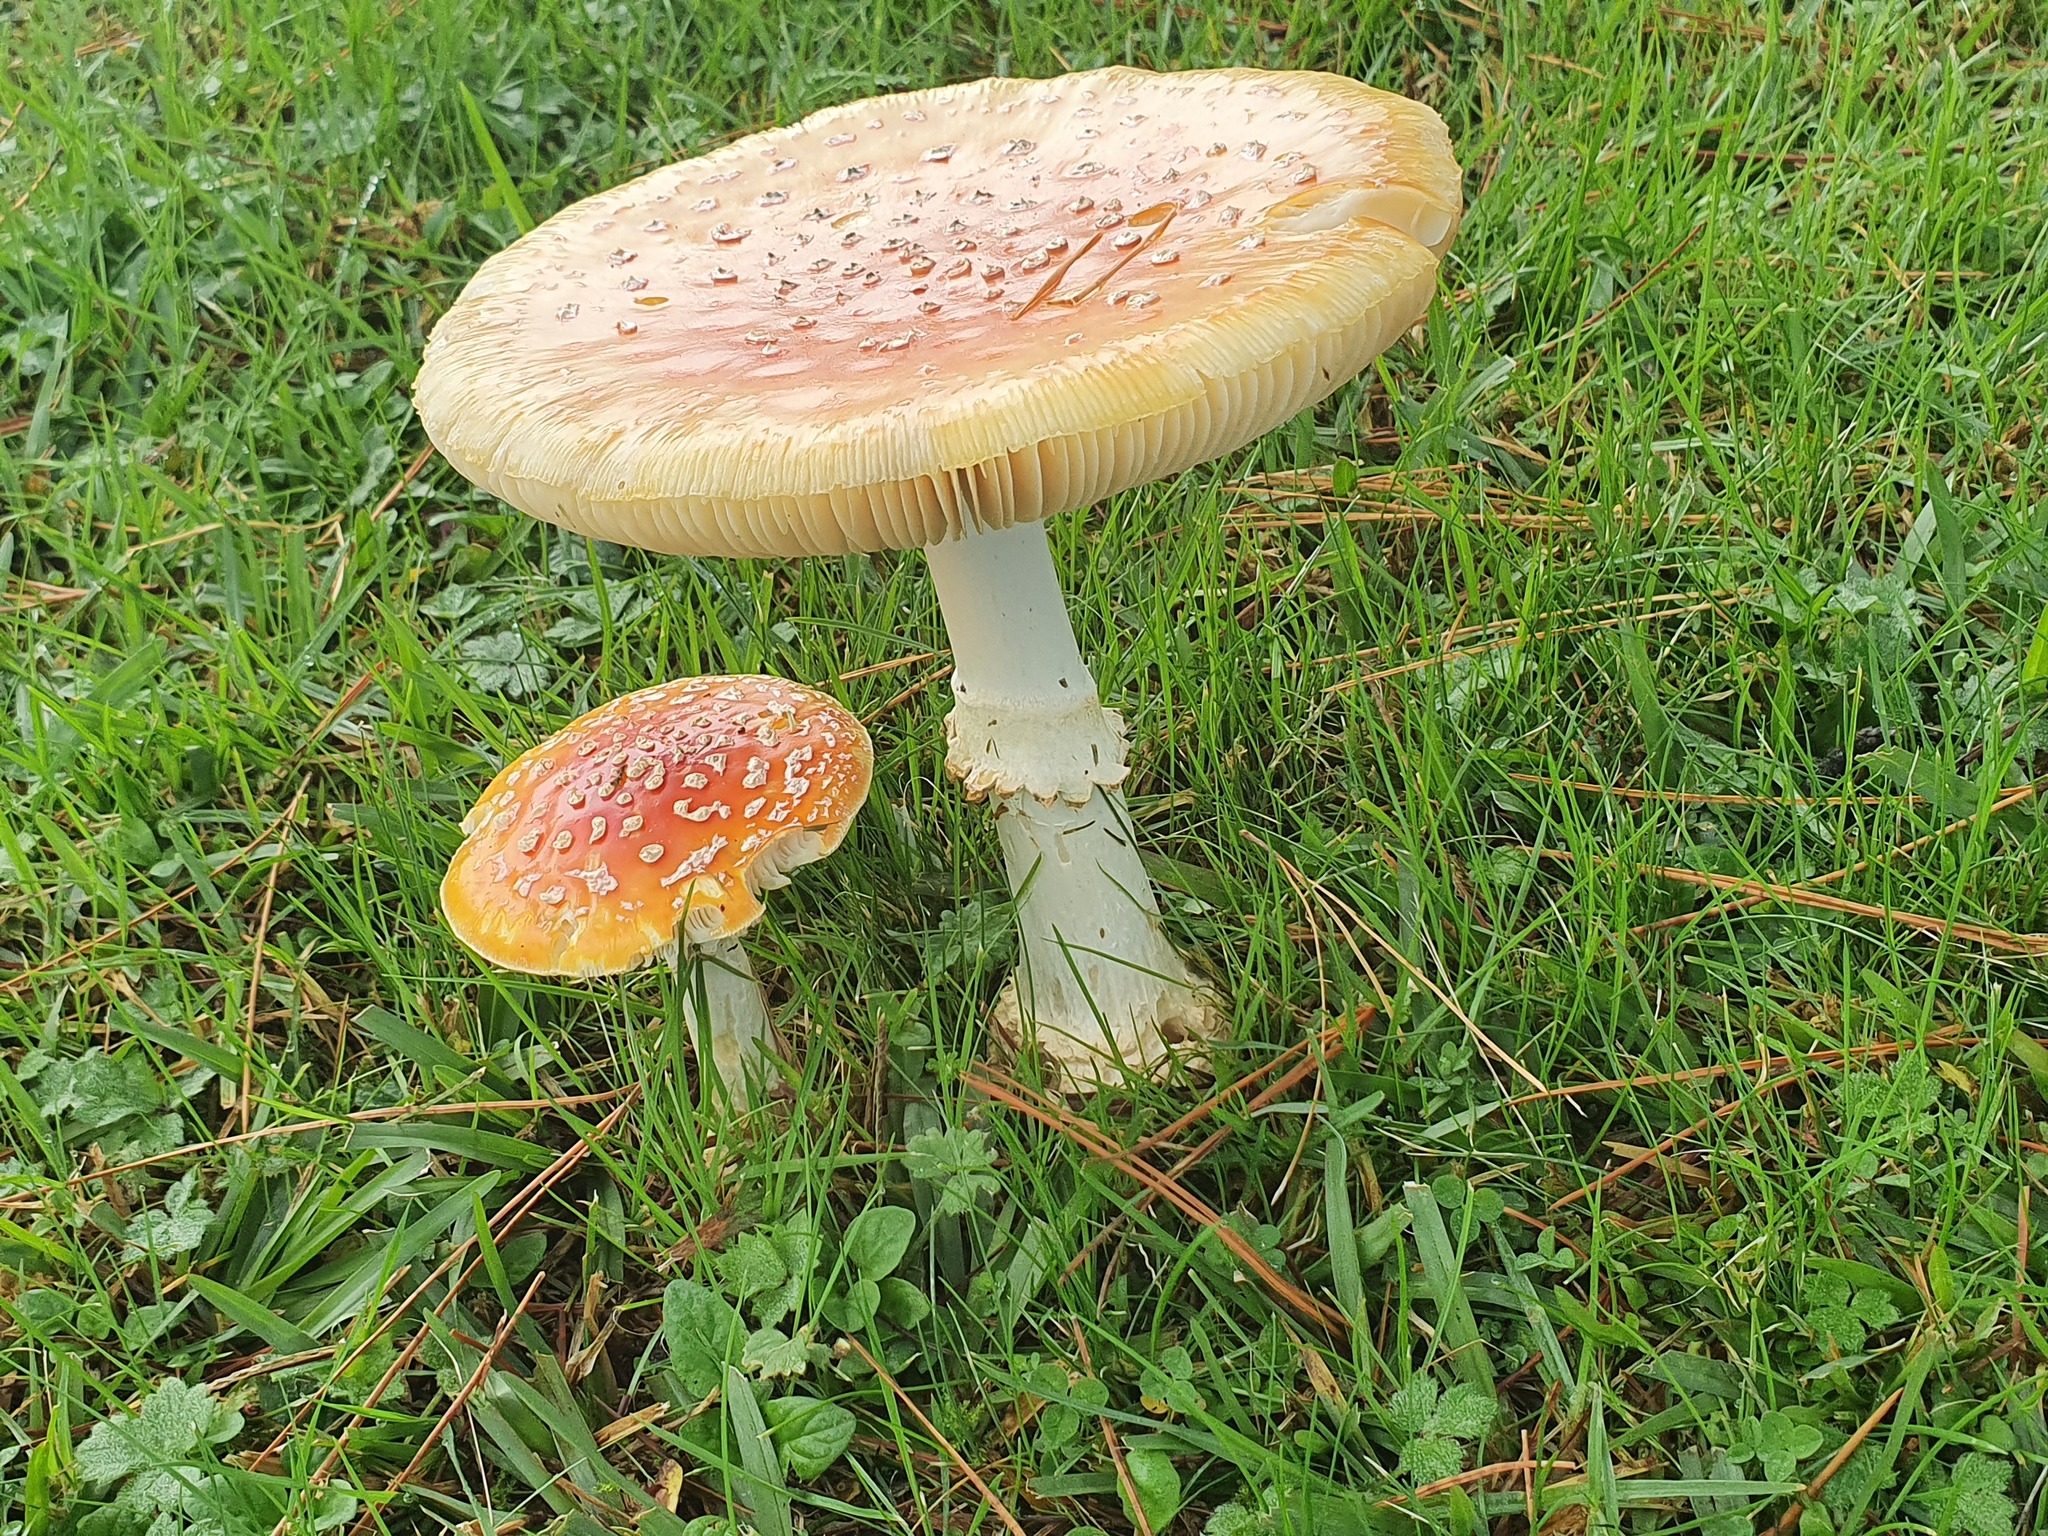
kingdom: Fungi
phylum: Basidiomycota
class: Agaricomycetes
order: Agaricales
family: Amanitaceae
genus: Amanita
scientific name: Amanita muscaria
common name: Fly agaric
